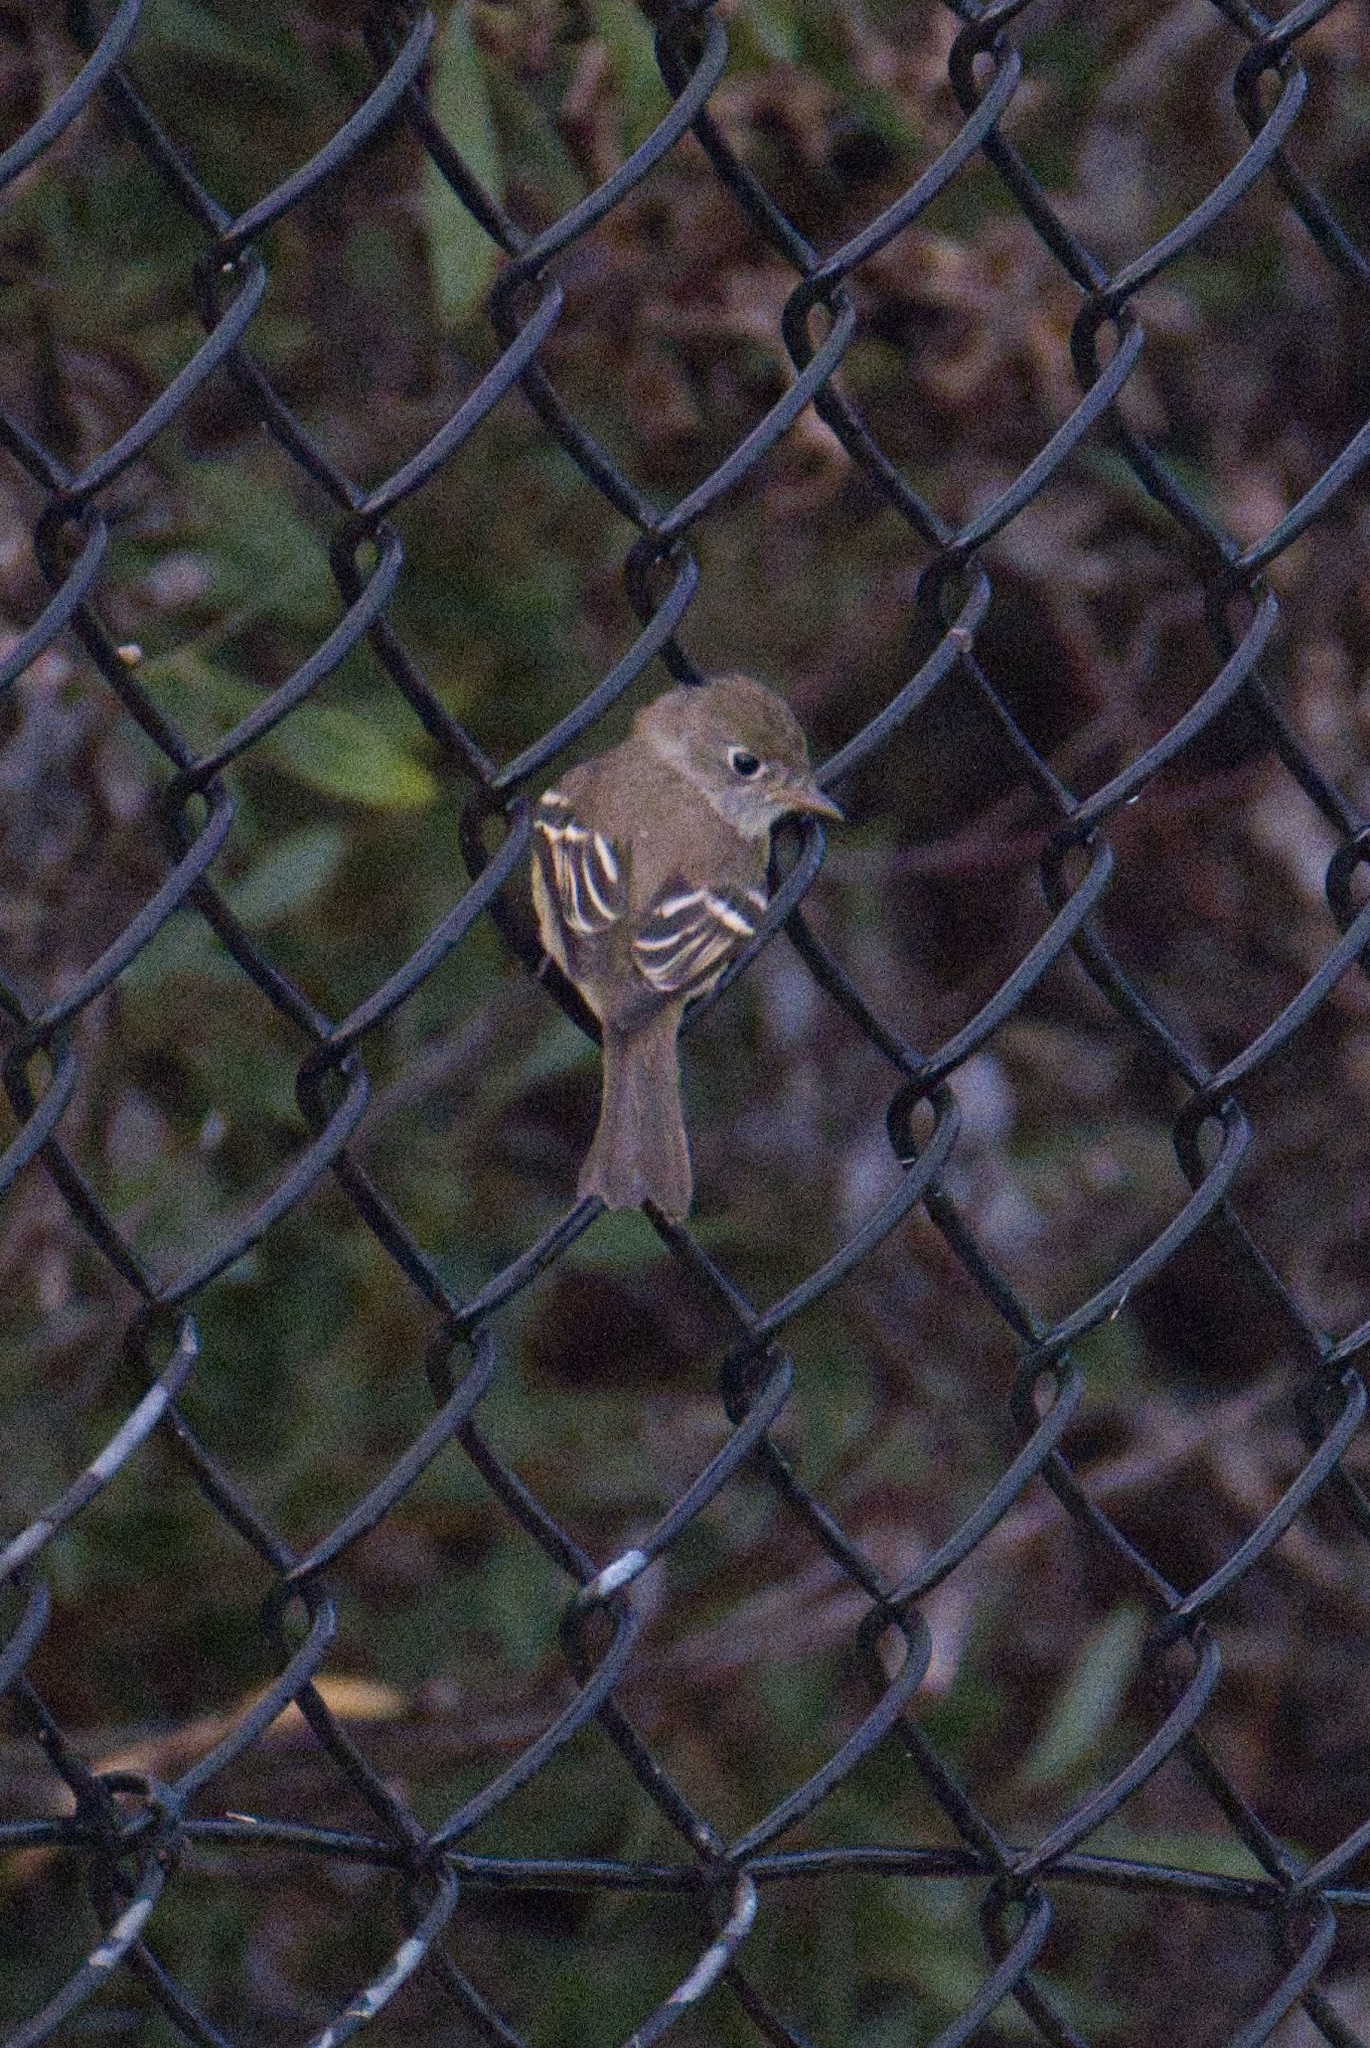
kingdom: Animalia
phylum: Chordata
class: Aves
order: Passeriformes
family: Tyrannidae
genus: Empidonax
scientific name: Empidonax minimus
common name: Least flycatcher
